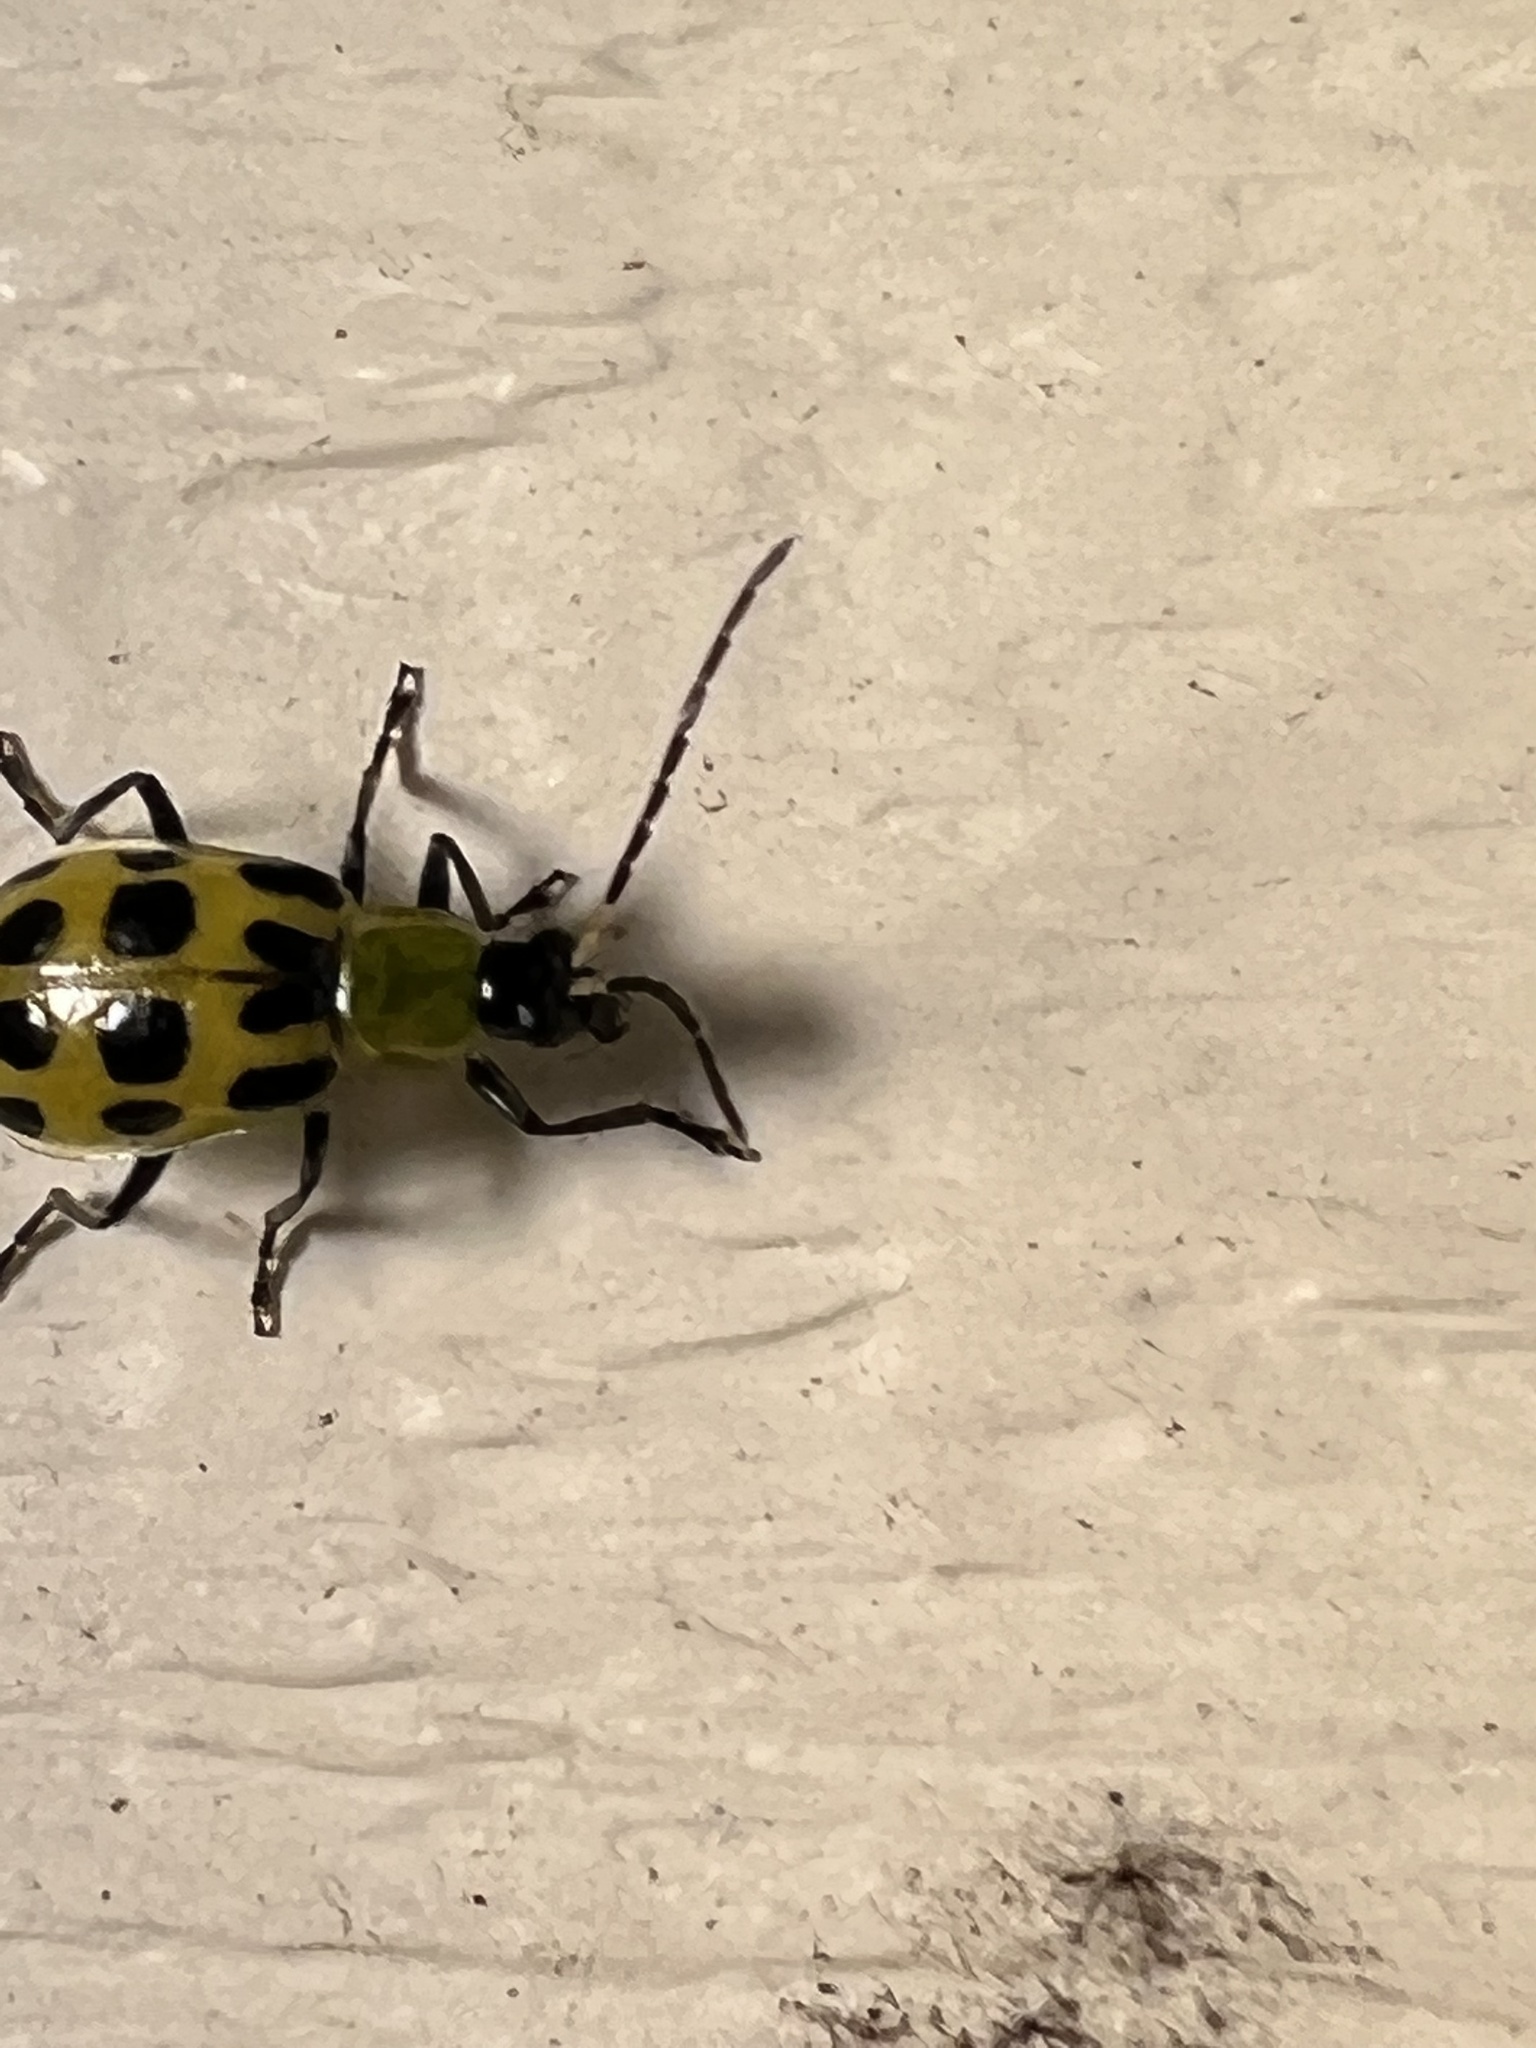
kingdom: Animalia
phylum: Arthropoda
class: Insecta
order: Coleoptera
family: Chrysomelidae
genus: Diabrotica
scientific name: Diabrotica undecimpunctata
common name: Spotted cucumber beetle
